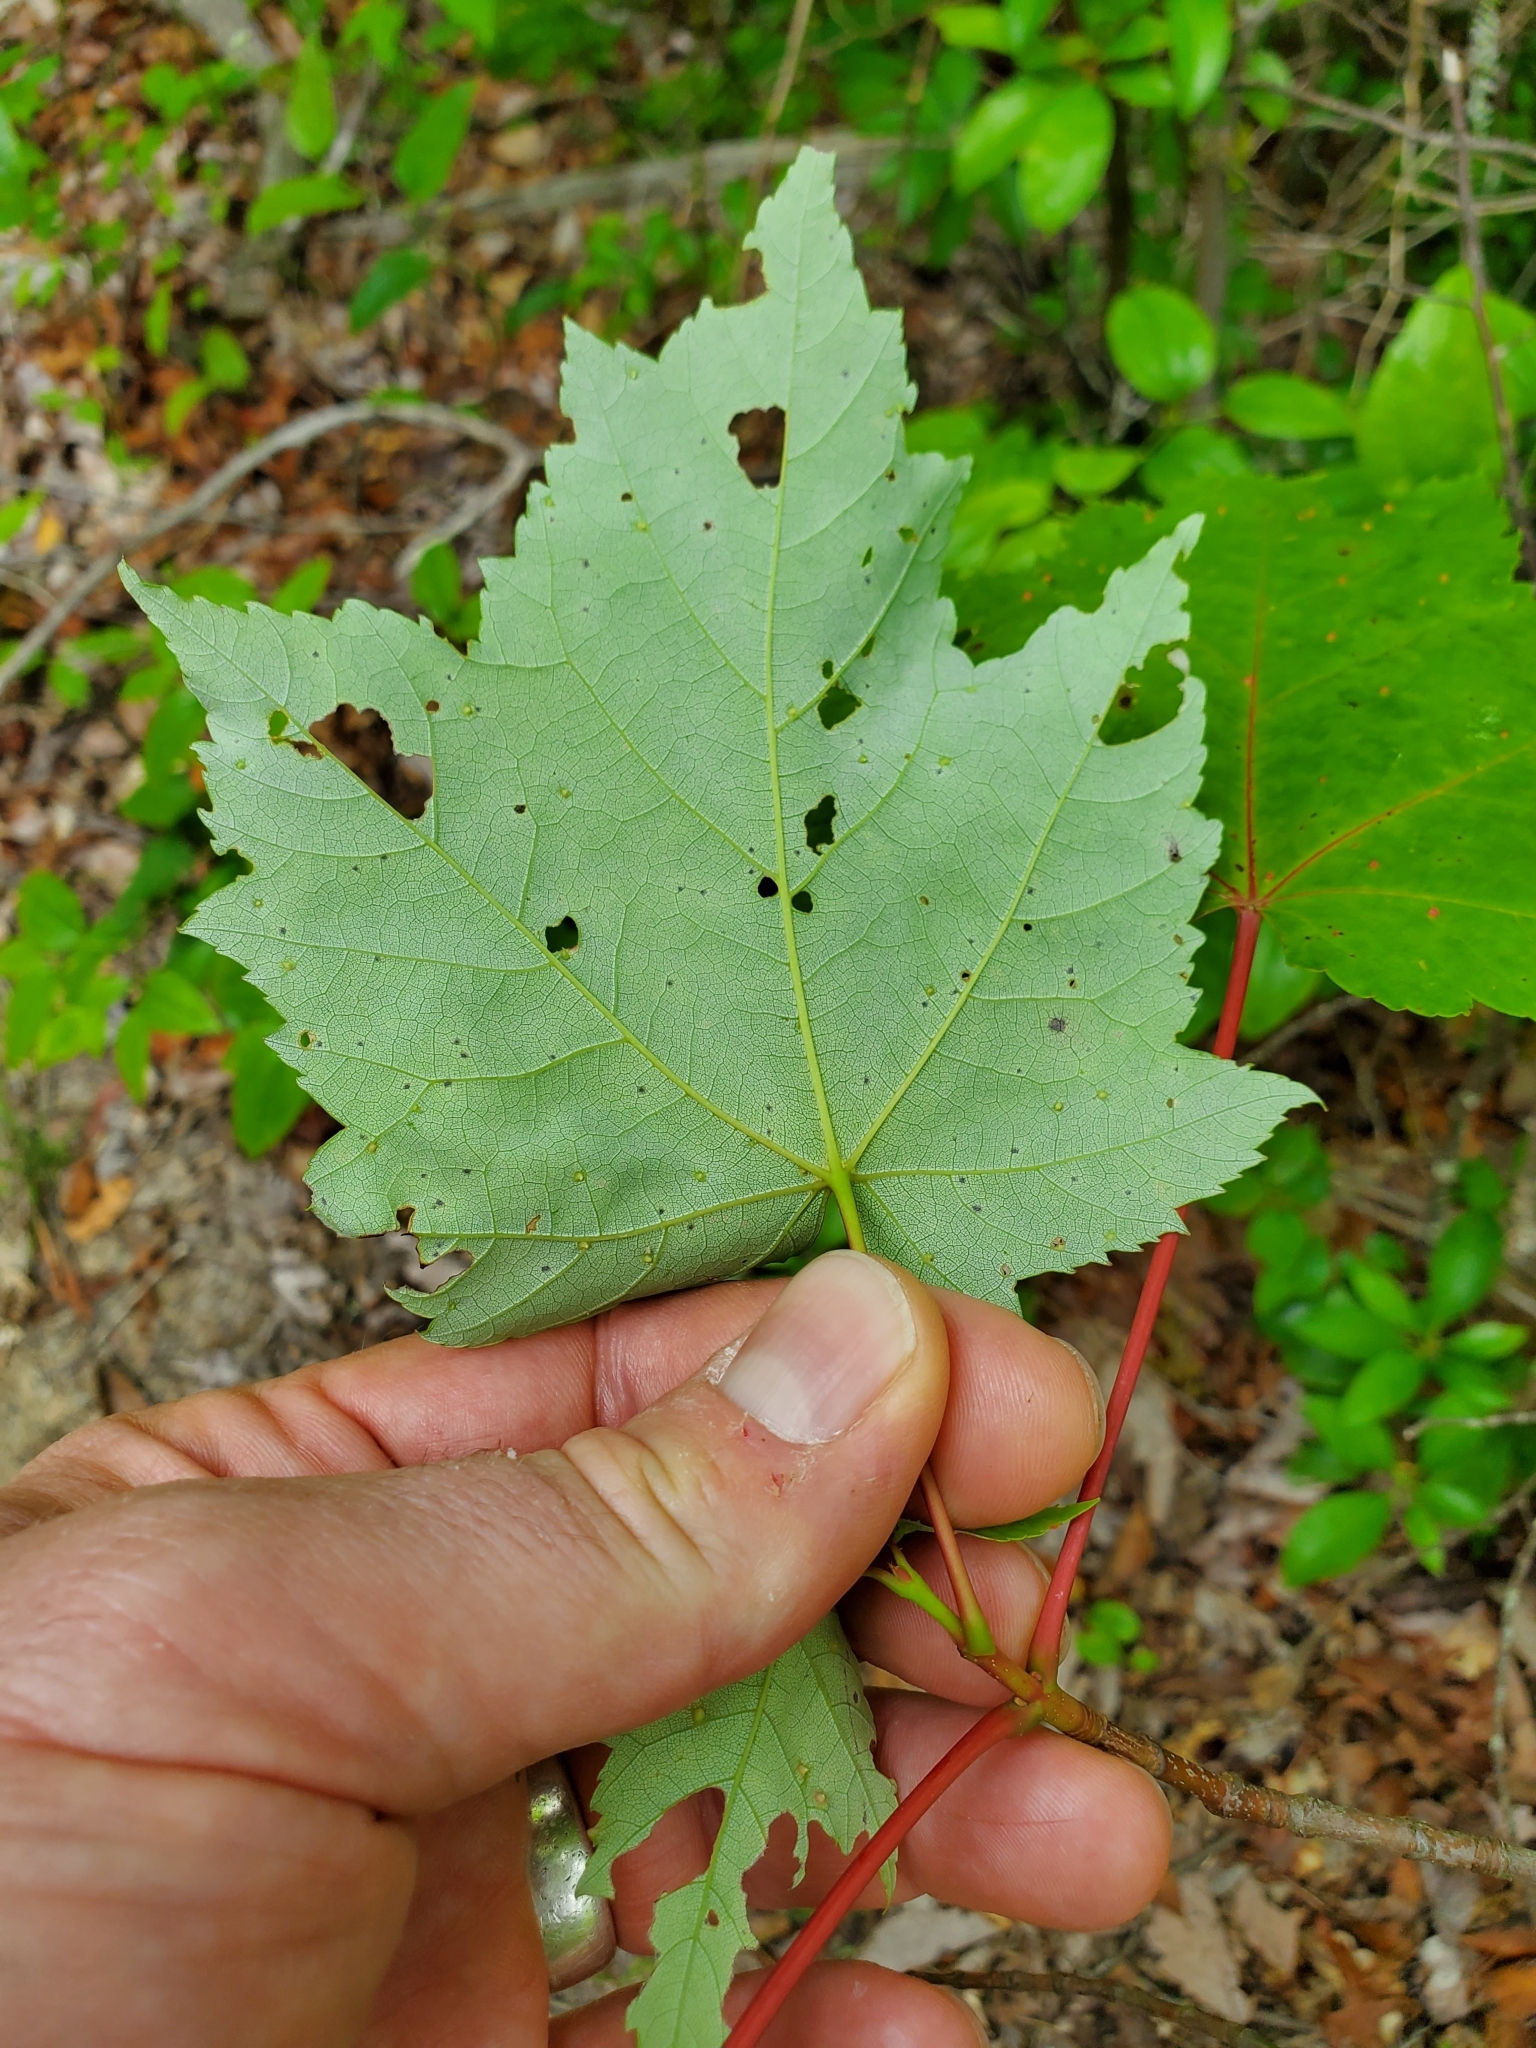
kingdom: Plantae
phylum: Tracheophyta
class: Magnoliopsida
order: Sapindales
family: Sapindaceae
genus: Acer
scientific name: Acer rubrum
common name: Red maple
